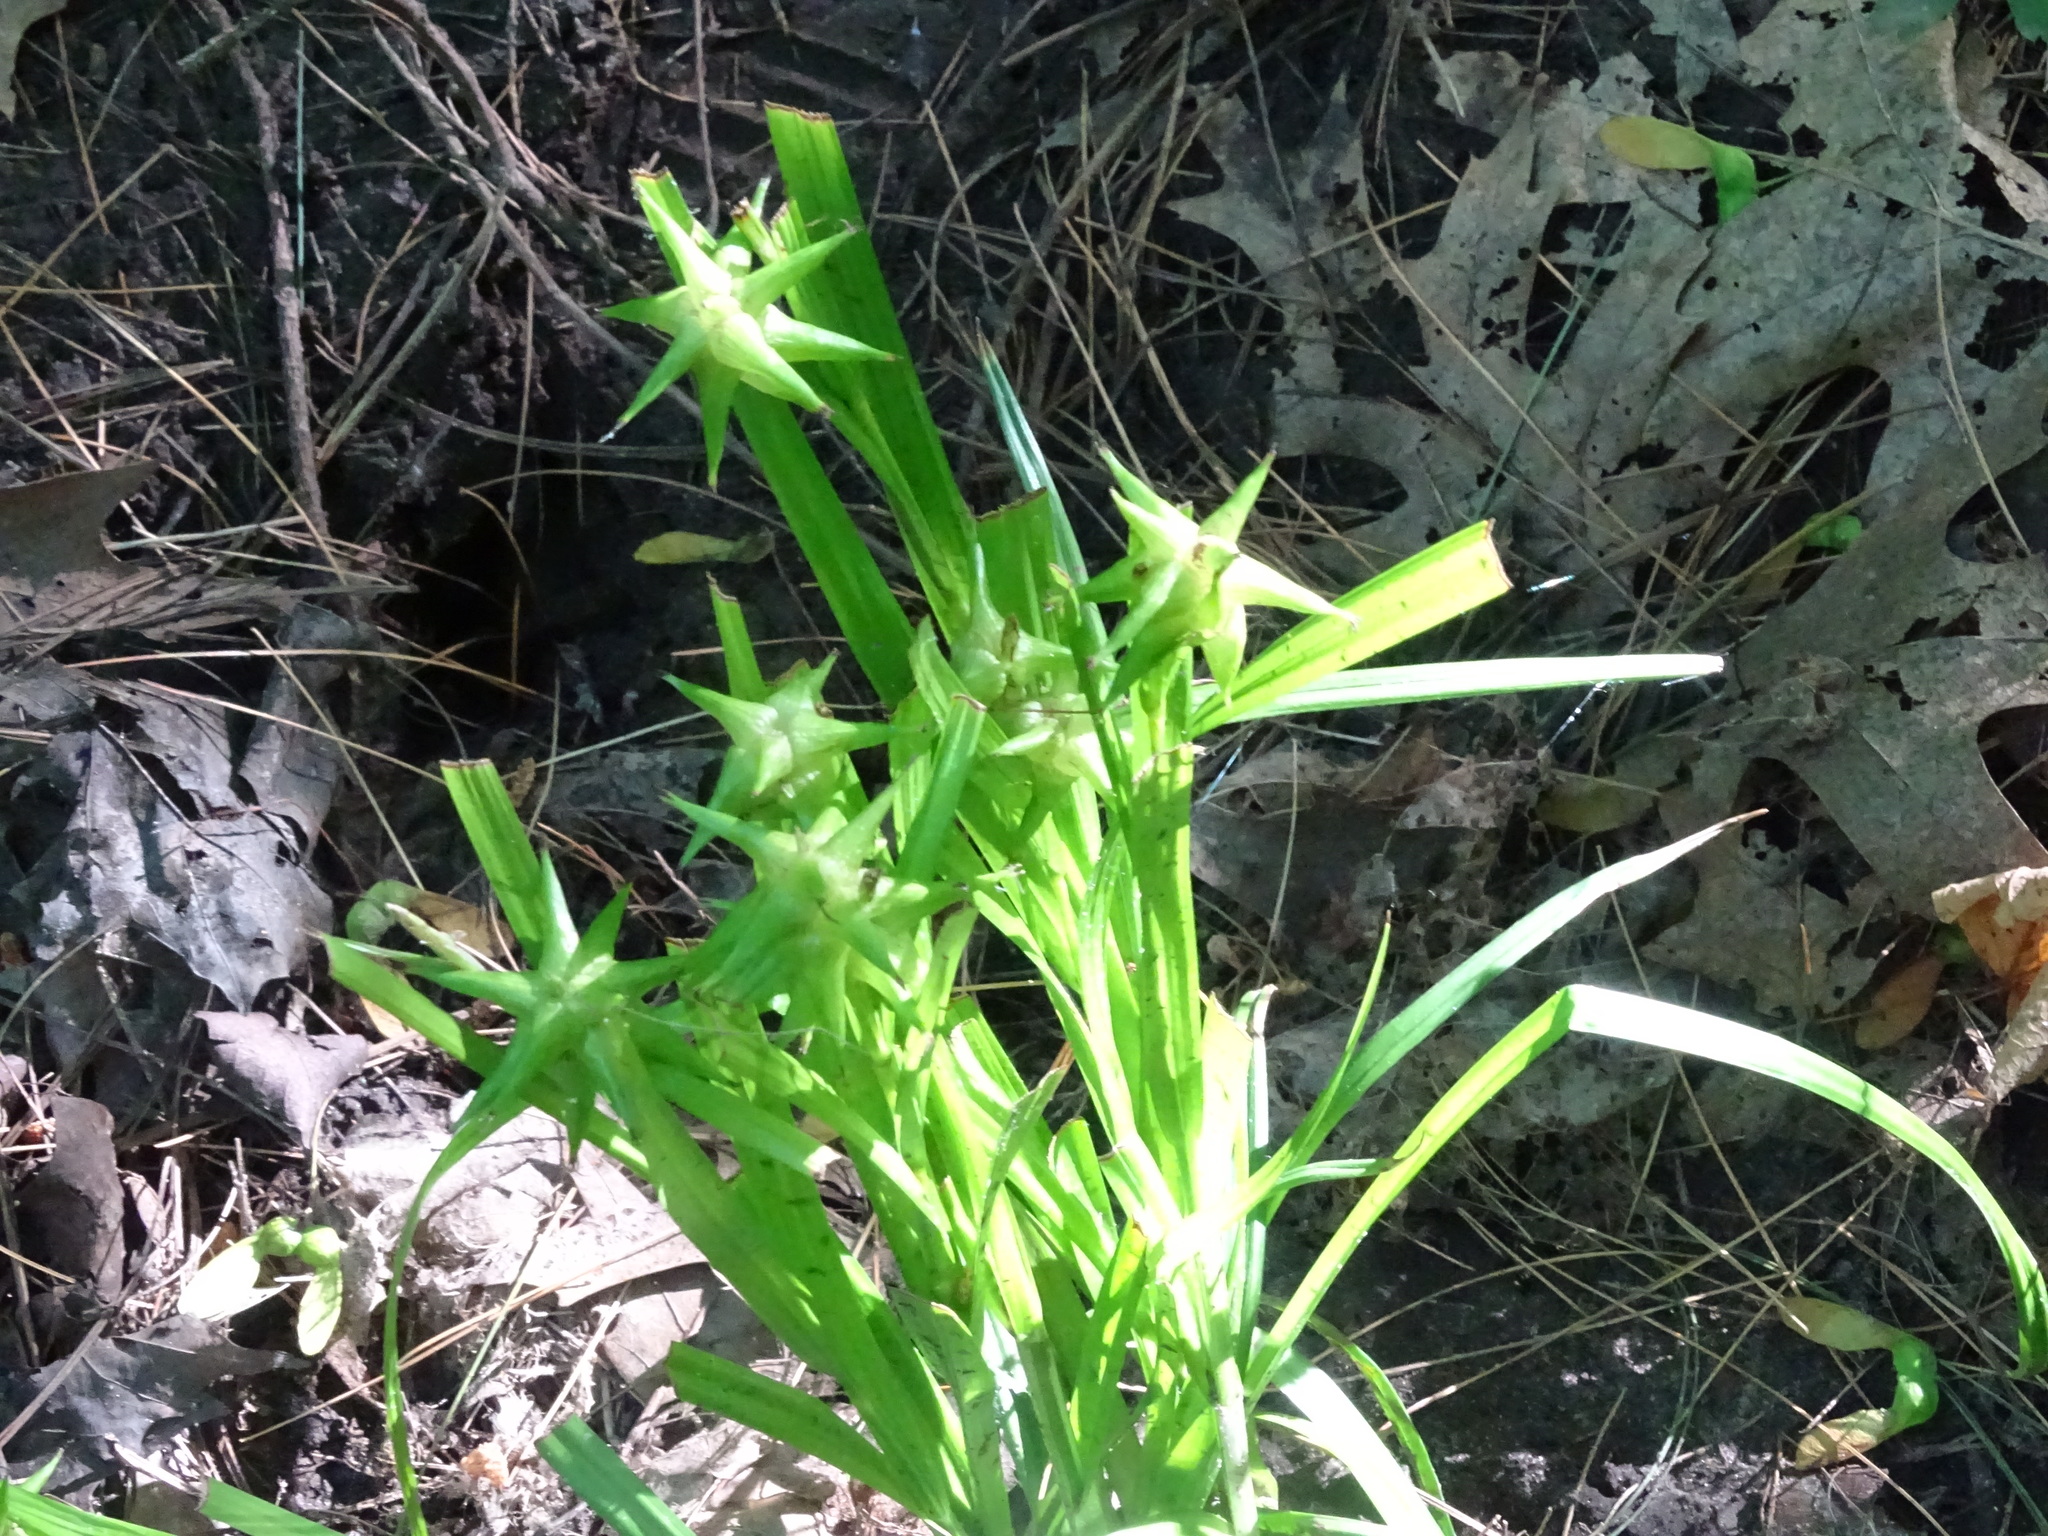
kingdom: Plantae
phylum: Tracheophyta
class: Liliopsida
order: Poales
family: Cyperaceae
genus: Carex
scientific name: Carex grayi
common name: Asa gray's sedge
